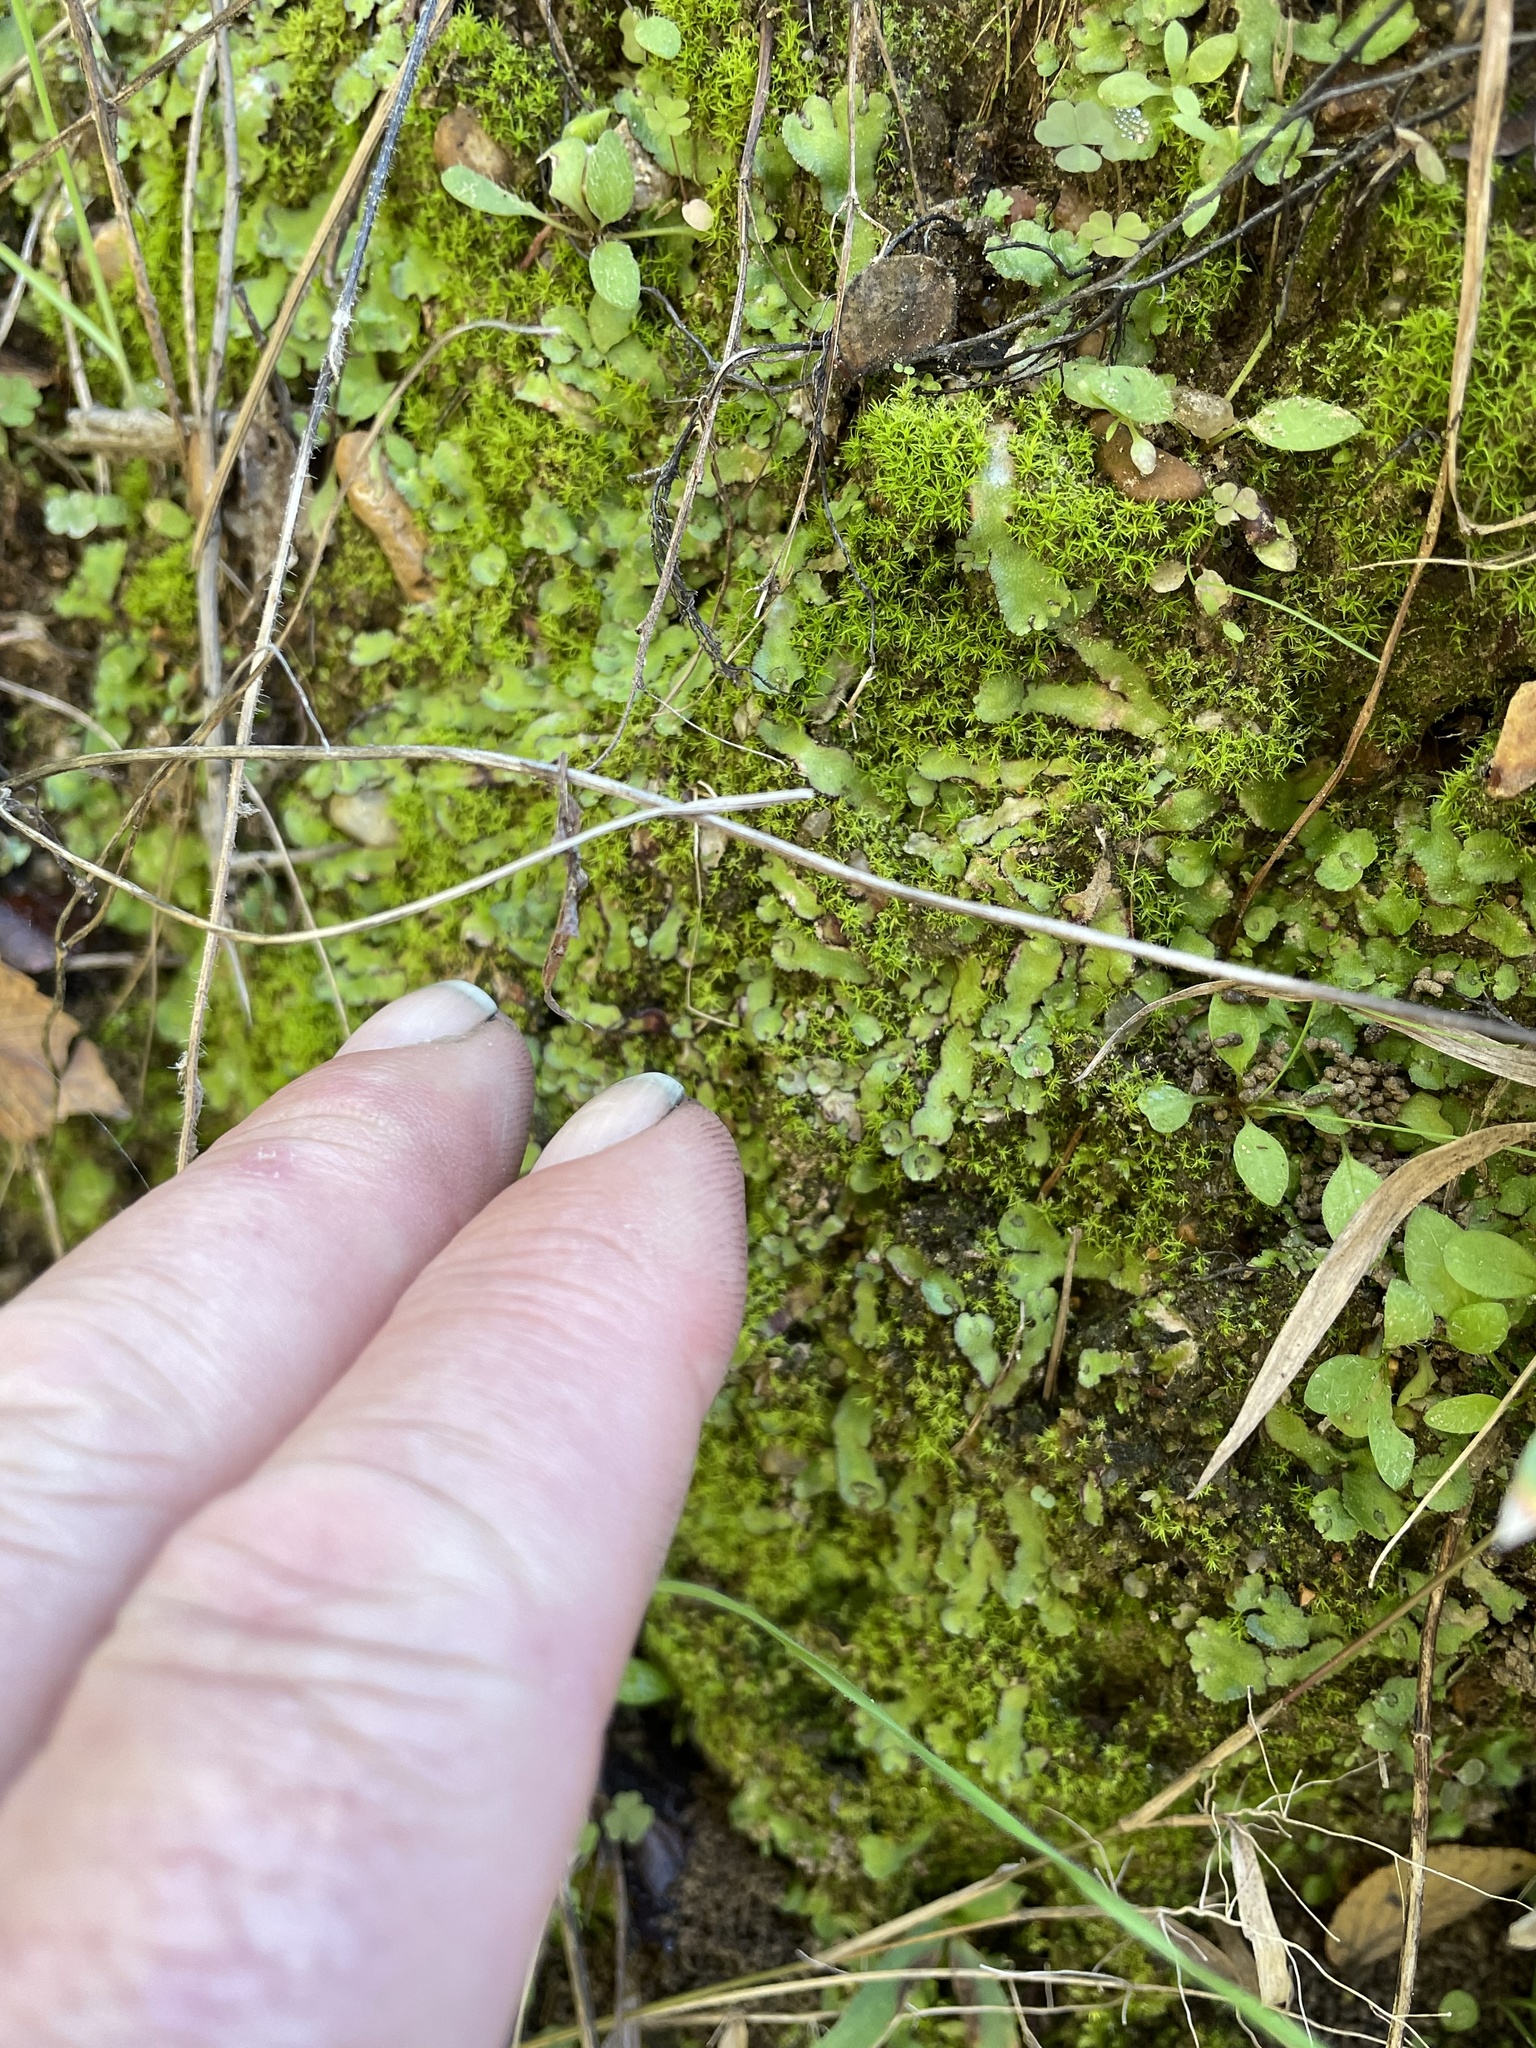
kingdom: Plantae
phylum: Marchantiophyta
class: Marchantiopsida
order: Marchantiales
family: Aytoniaceae
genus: Reboulia
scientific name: Reboulia hemisphaerica
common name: Purple-margined liverwort
